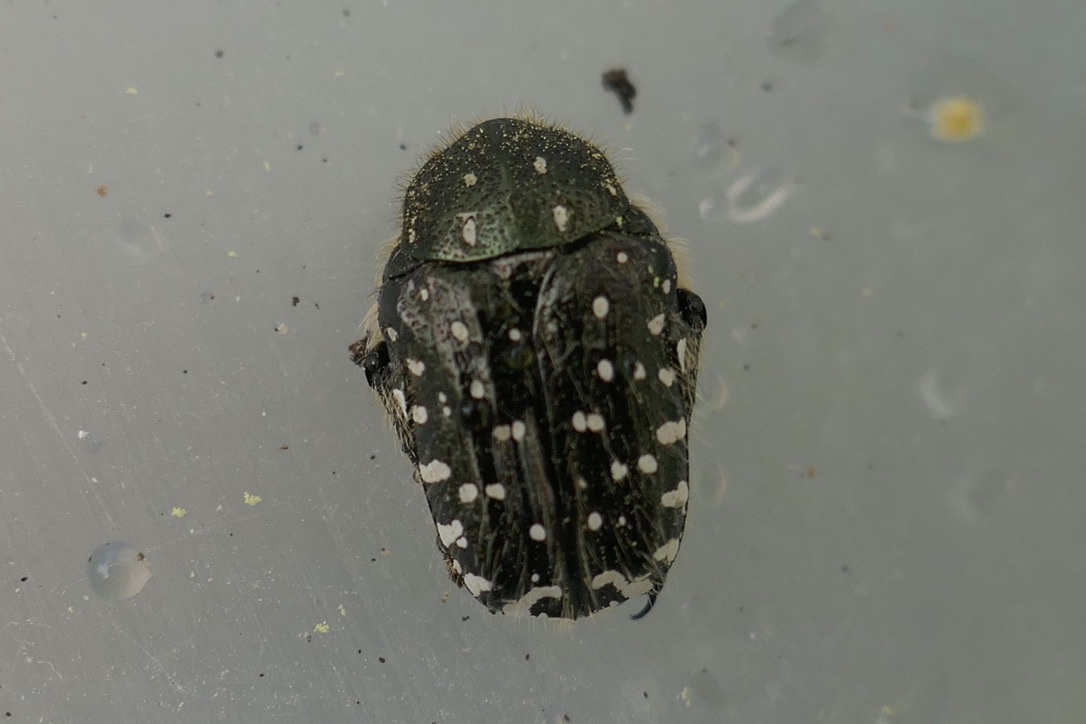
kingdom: Animalia
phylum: Arthropoda
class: Insecta
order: Coleoptera
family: Scarabaeidae
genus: Oxythyrea
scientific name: Oxythyrea funesta
